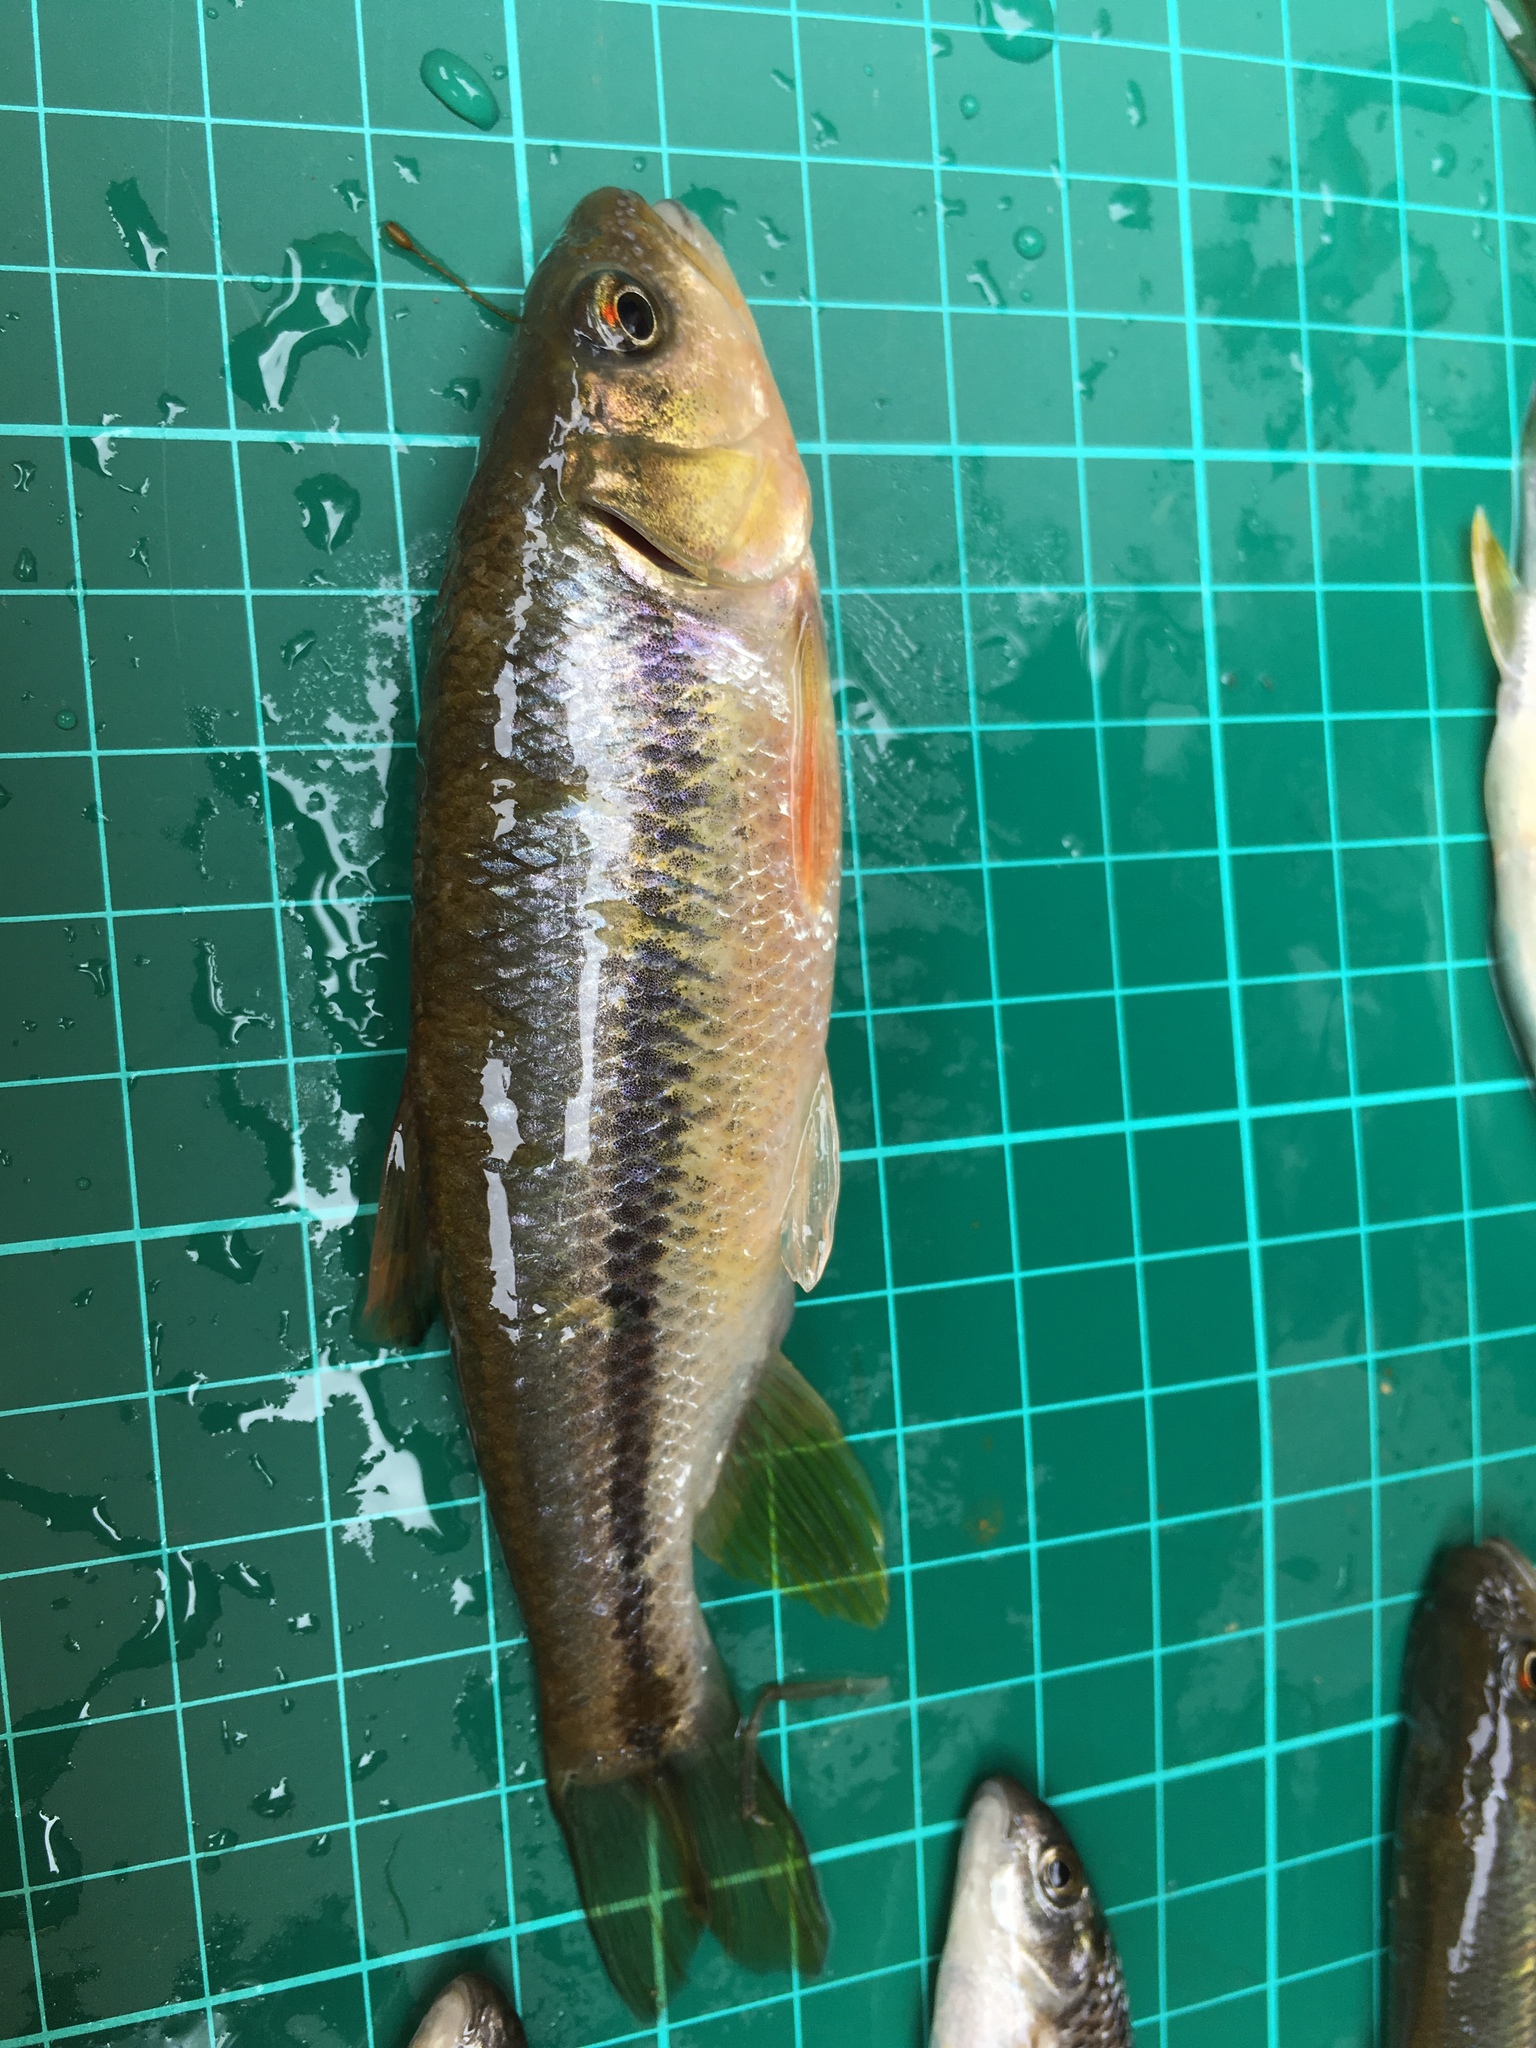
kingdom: Animalia
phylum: Chordata
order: Cypriniformes
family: Cyprinidae
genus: Candidia
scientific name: Candidia barbata
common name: Lake candidus dace
